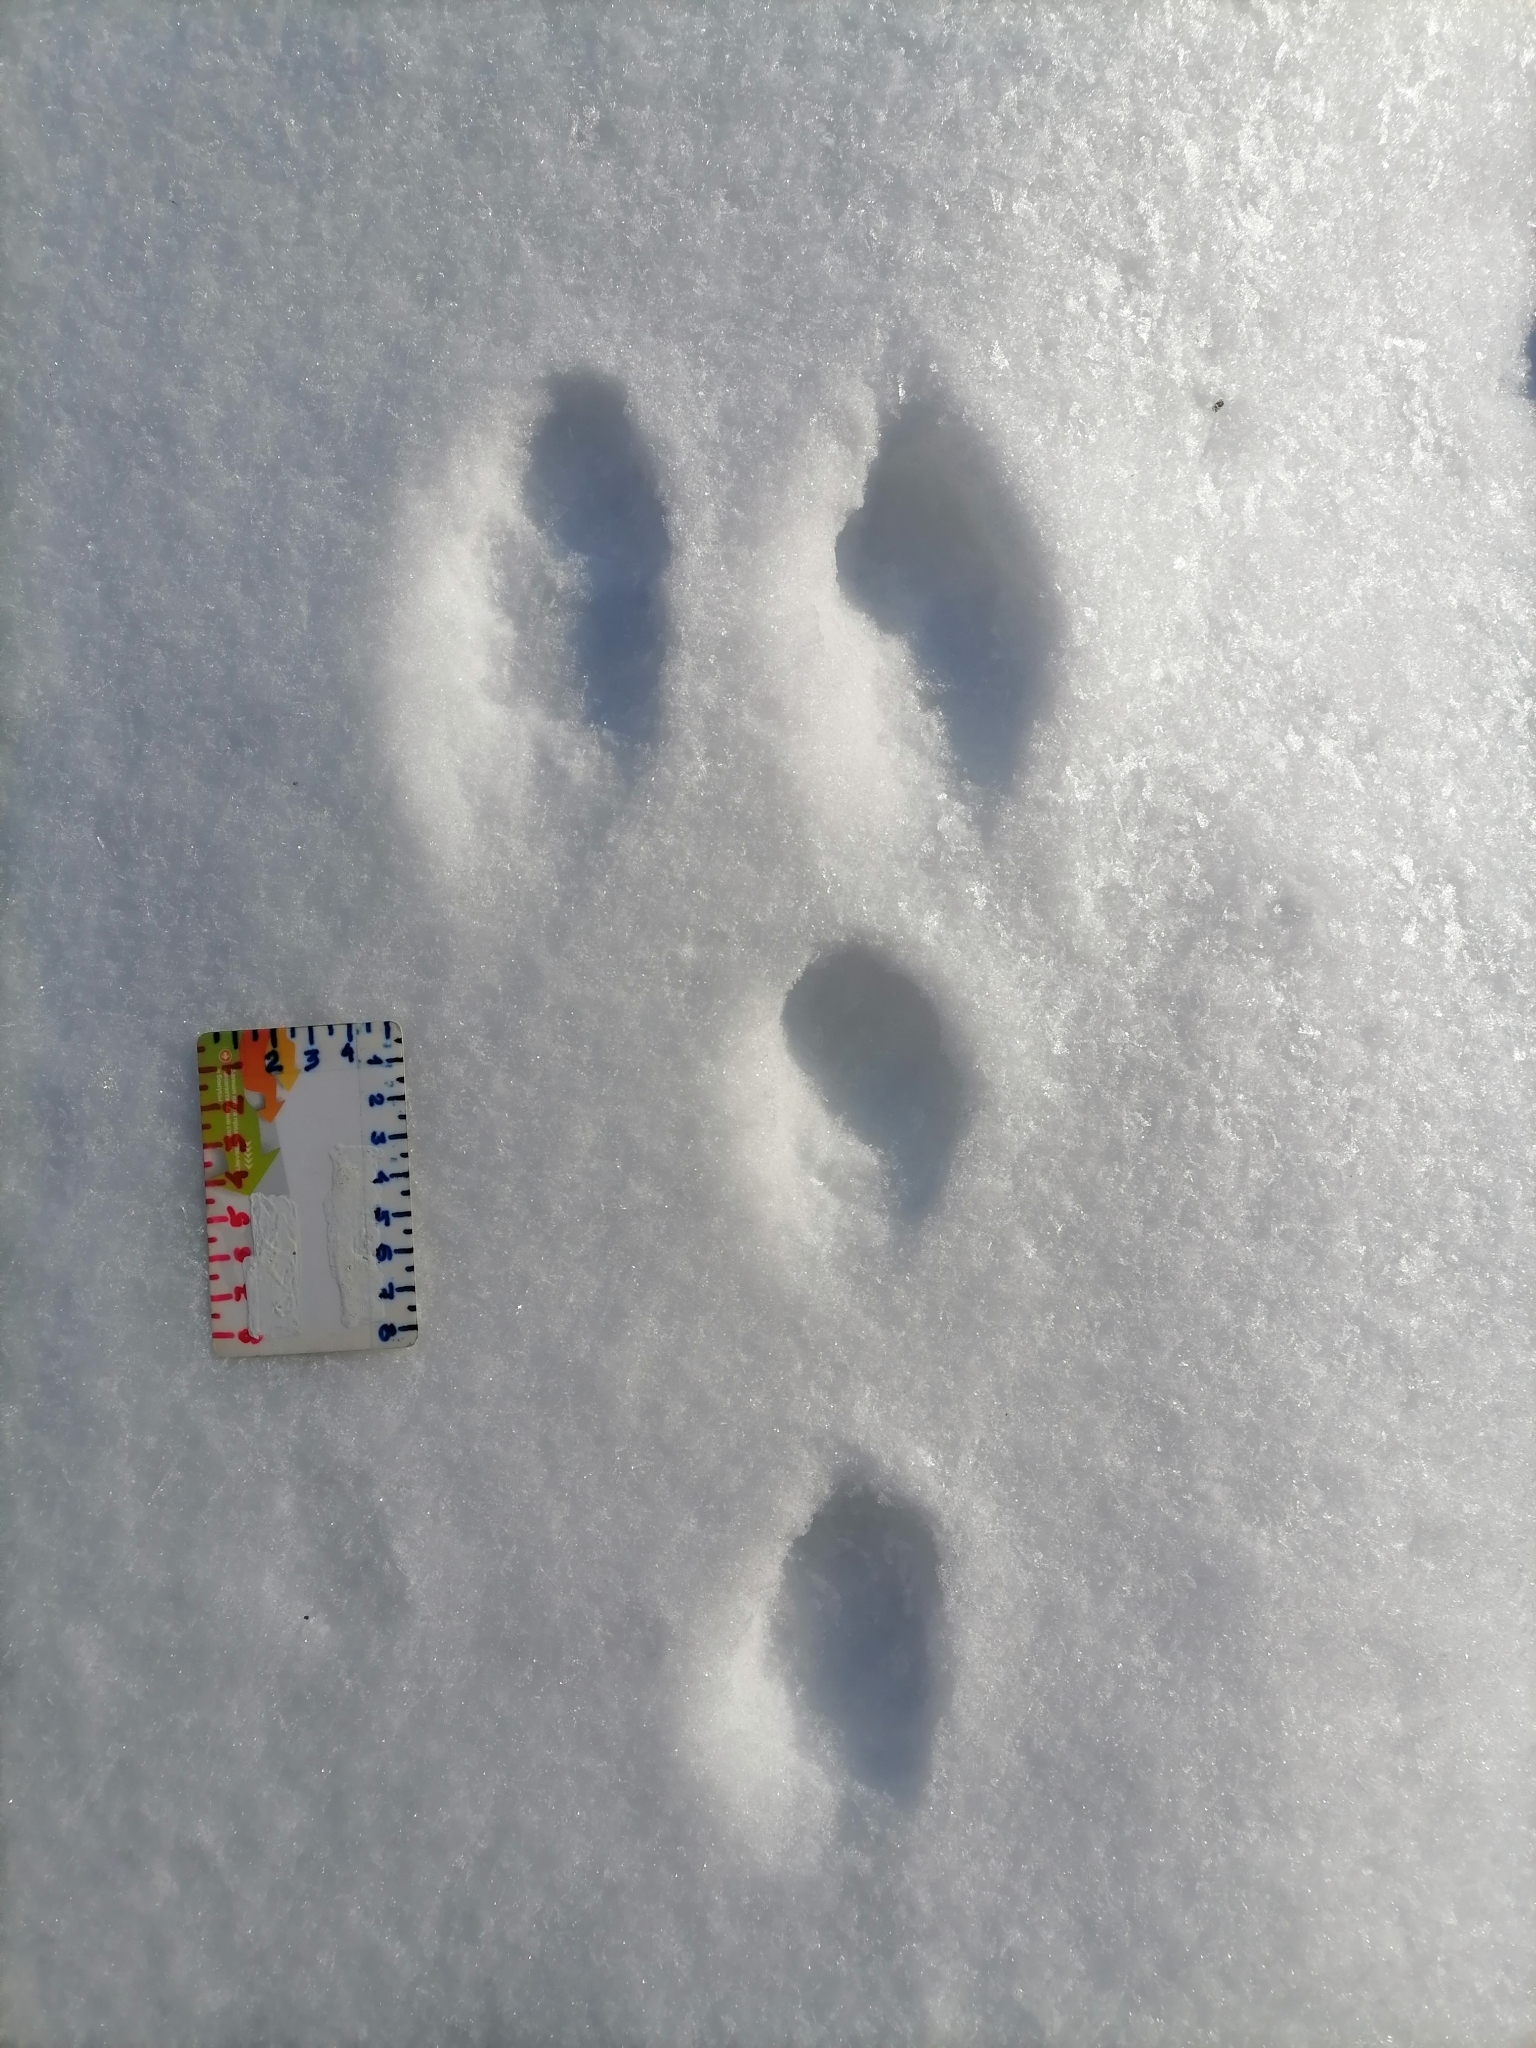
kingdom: Animalia
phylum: Chordata
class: Mammalia
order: Lagomorpha
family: Leporidae
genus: Lepus
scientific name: Lepus europaeus
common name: European hare
